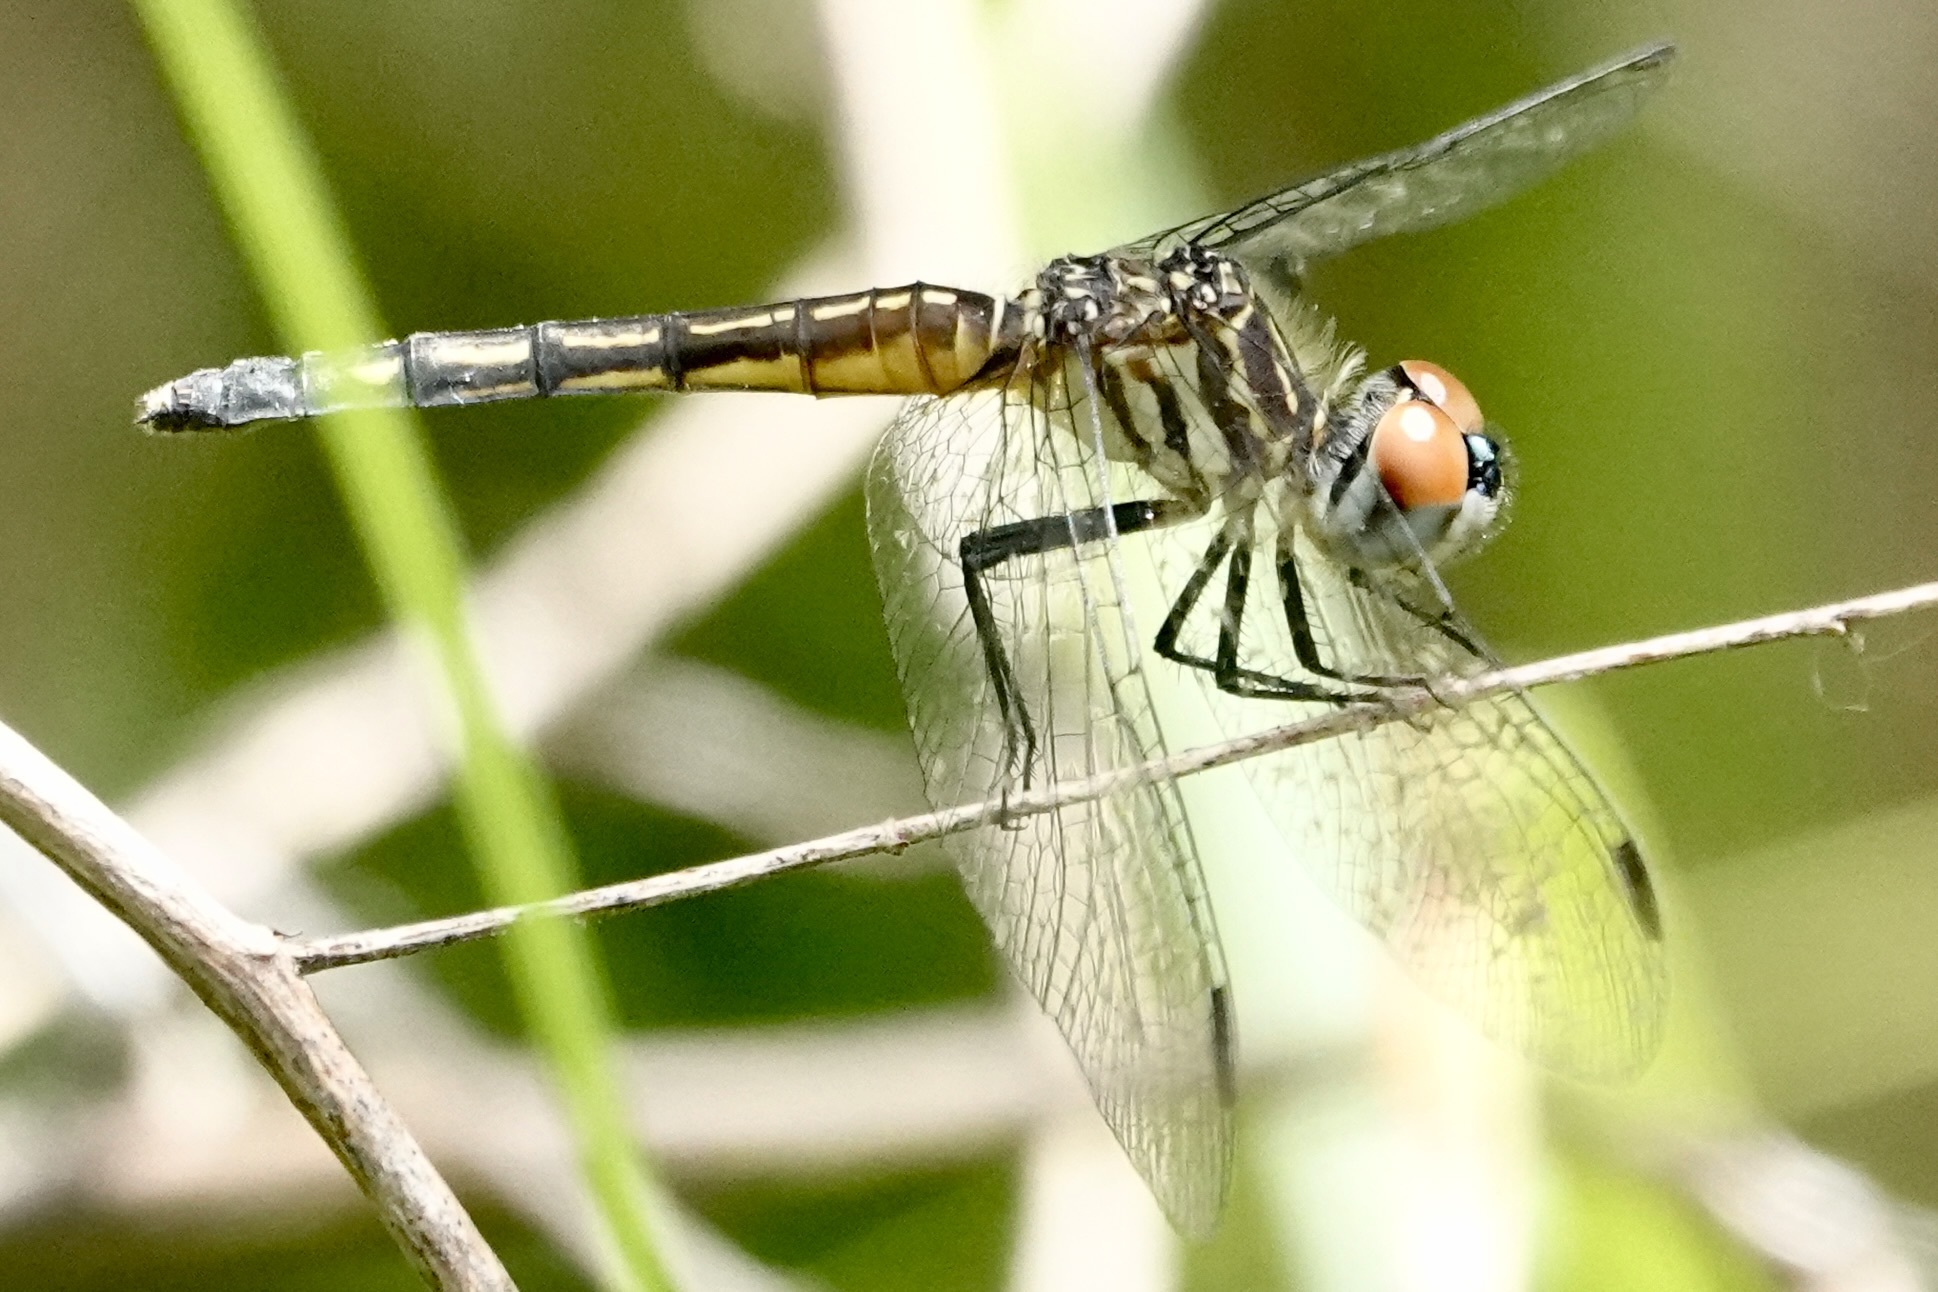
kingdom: Animalia
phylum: Arthropoda
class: Insecta
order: Odonata
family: Libellulidae
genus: Pachydiplax
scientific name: Pachydiplax longipennis
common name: Blue dasher
